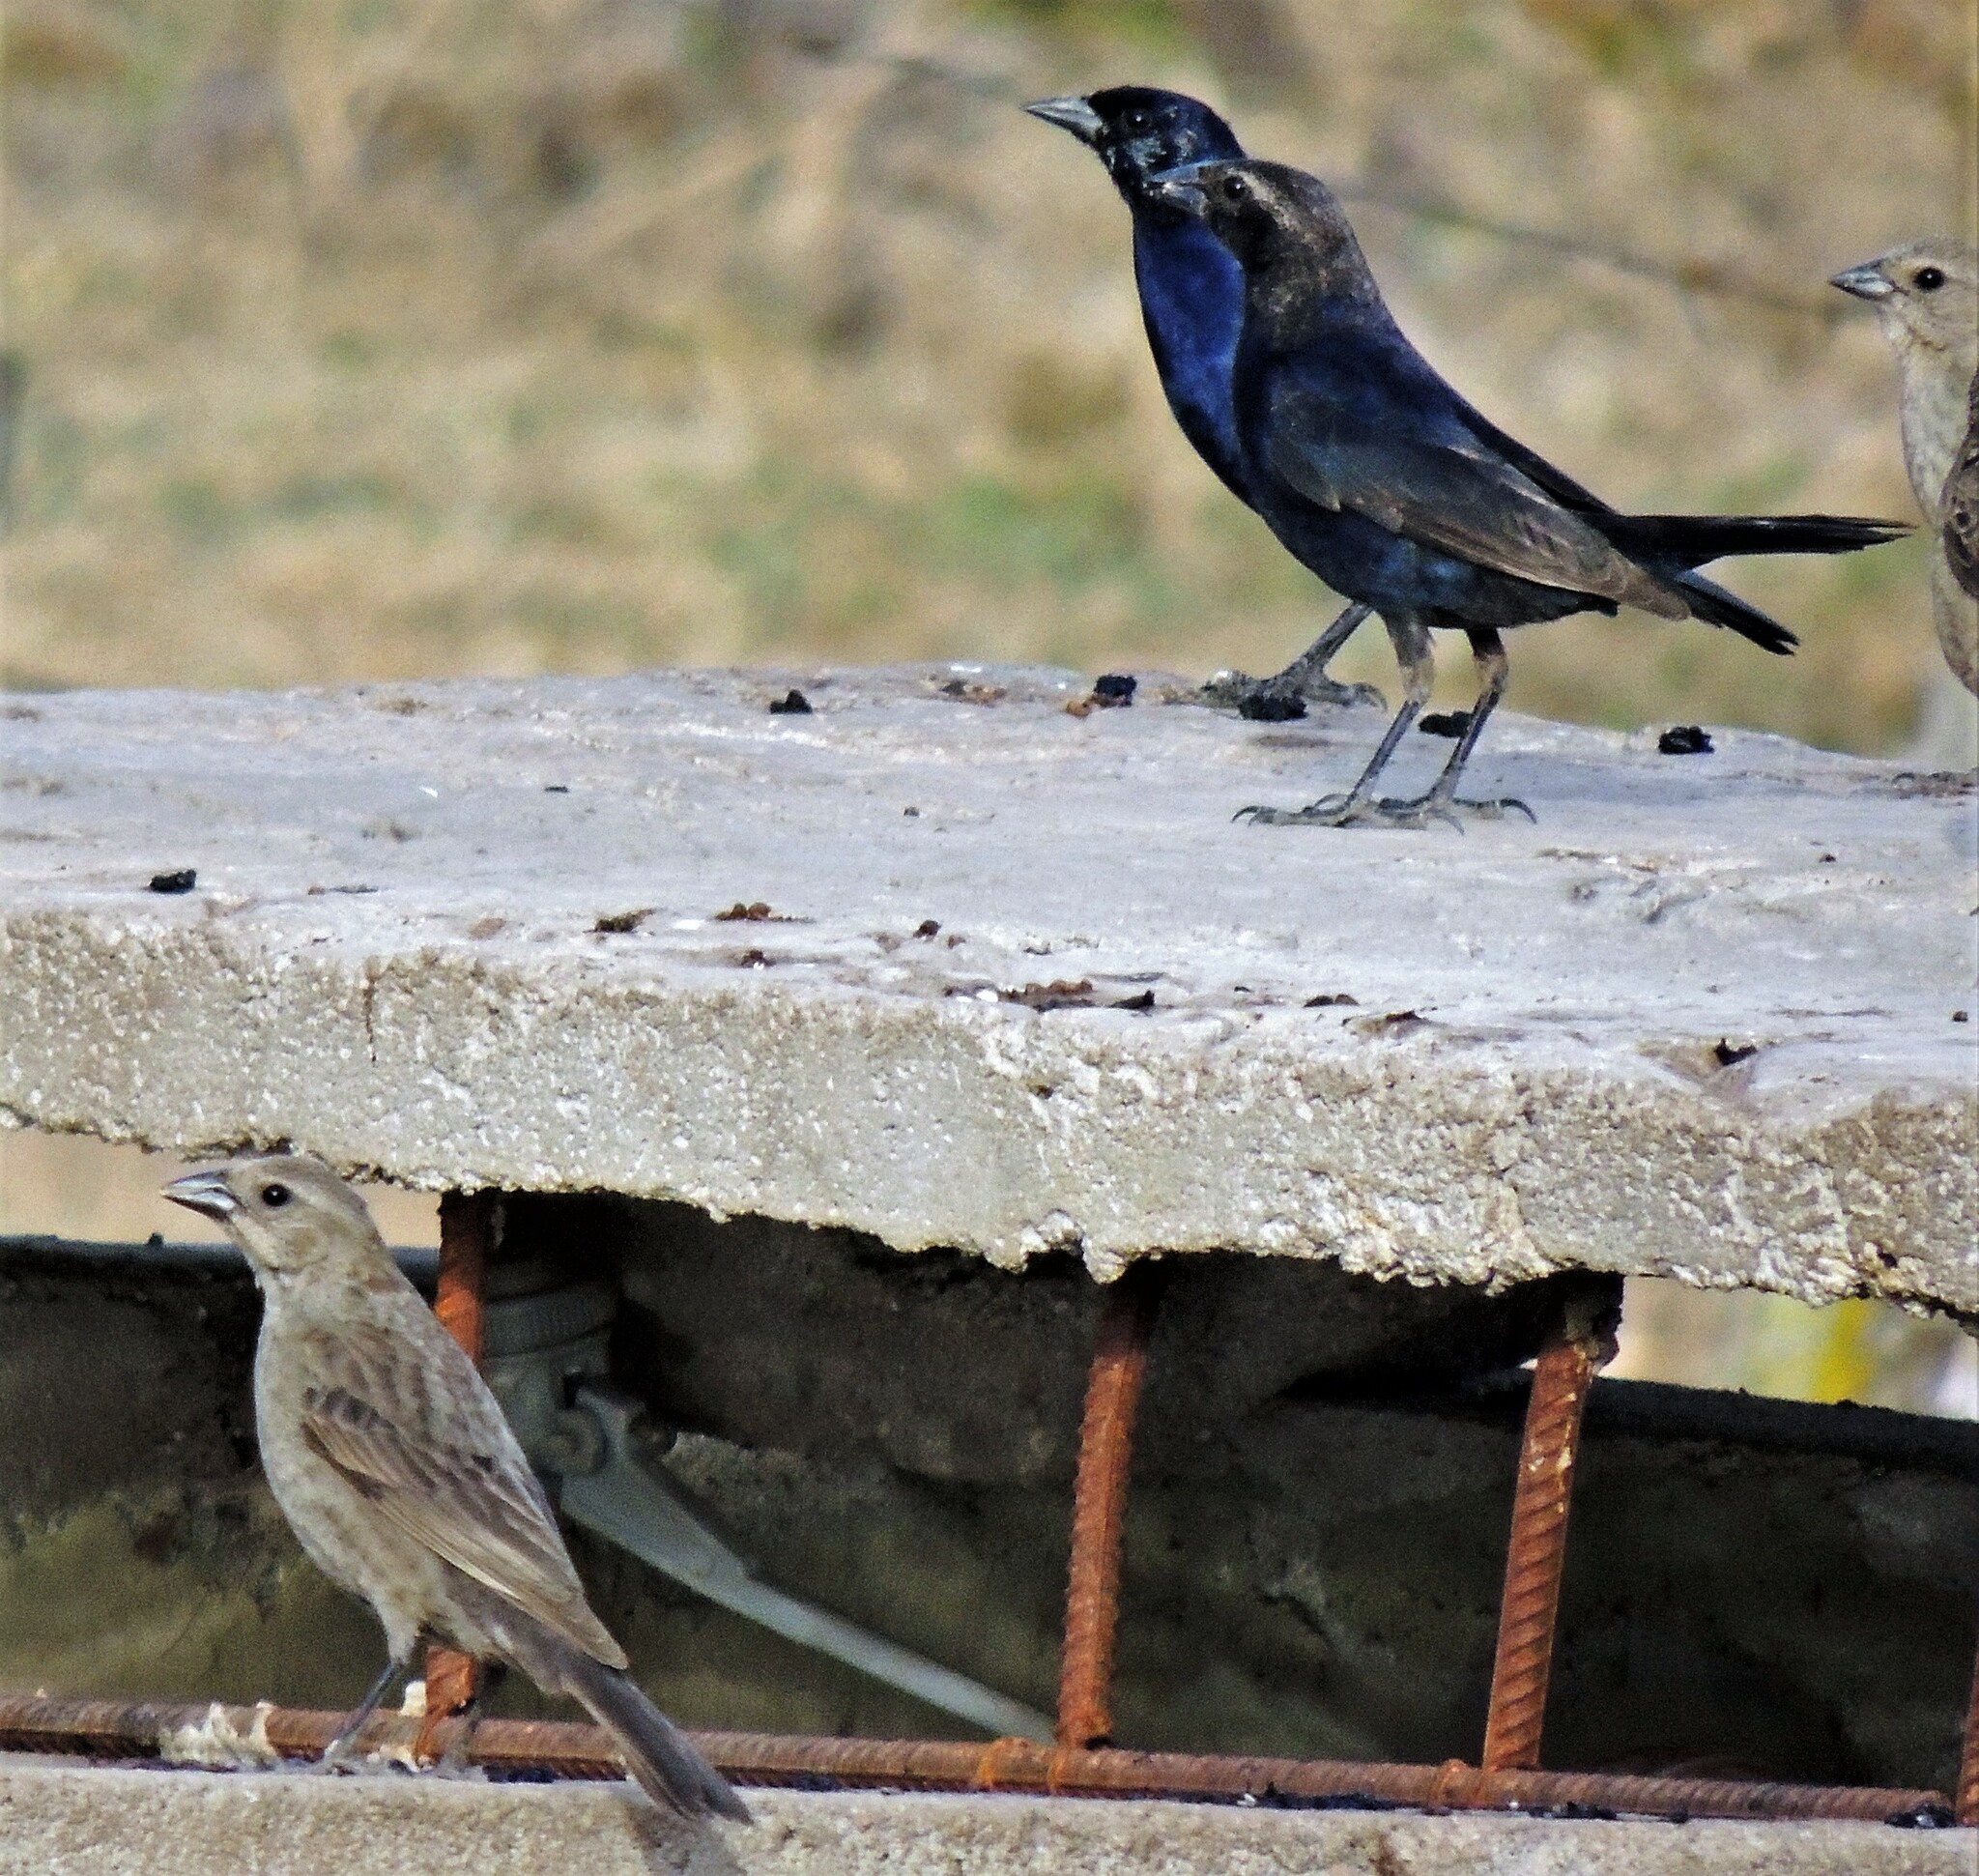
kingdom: Animalia
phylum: Chordata
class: Aves
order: Passeriformes
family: Icteridae
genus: Molothrus
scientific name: Molothrus bonariensis
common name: Shiny cowbird
